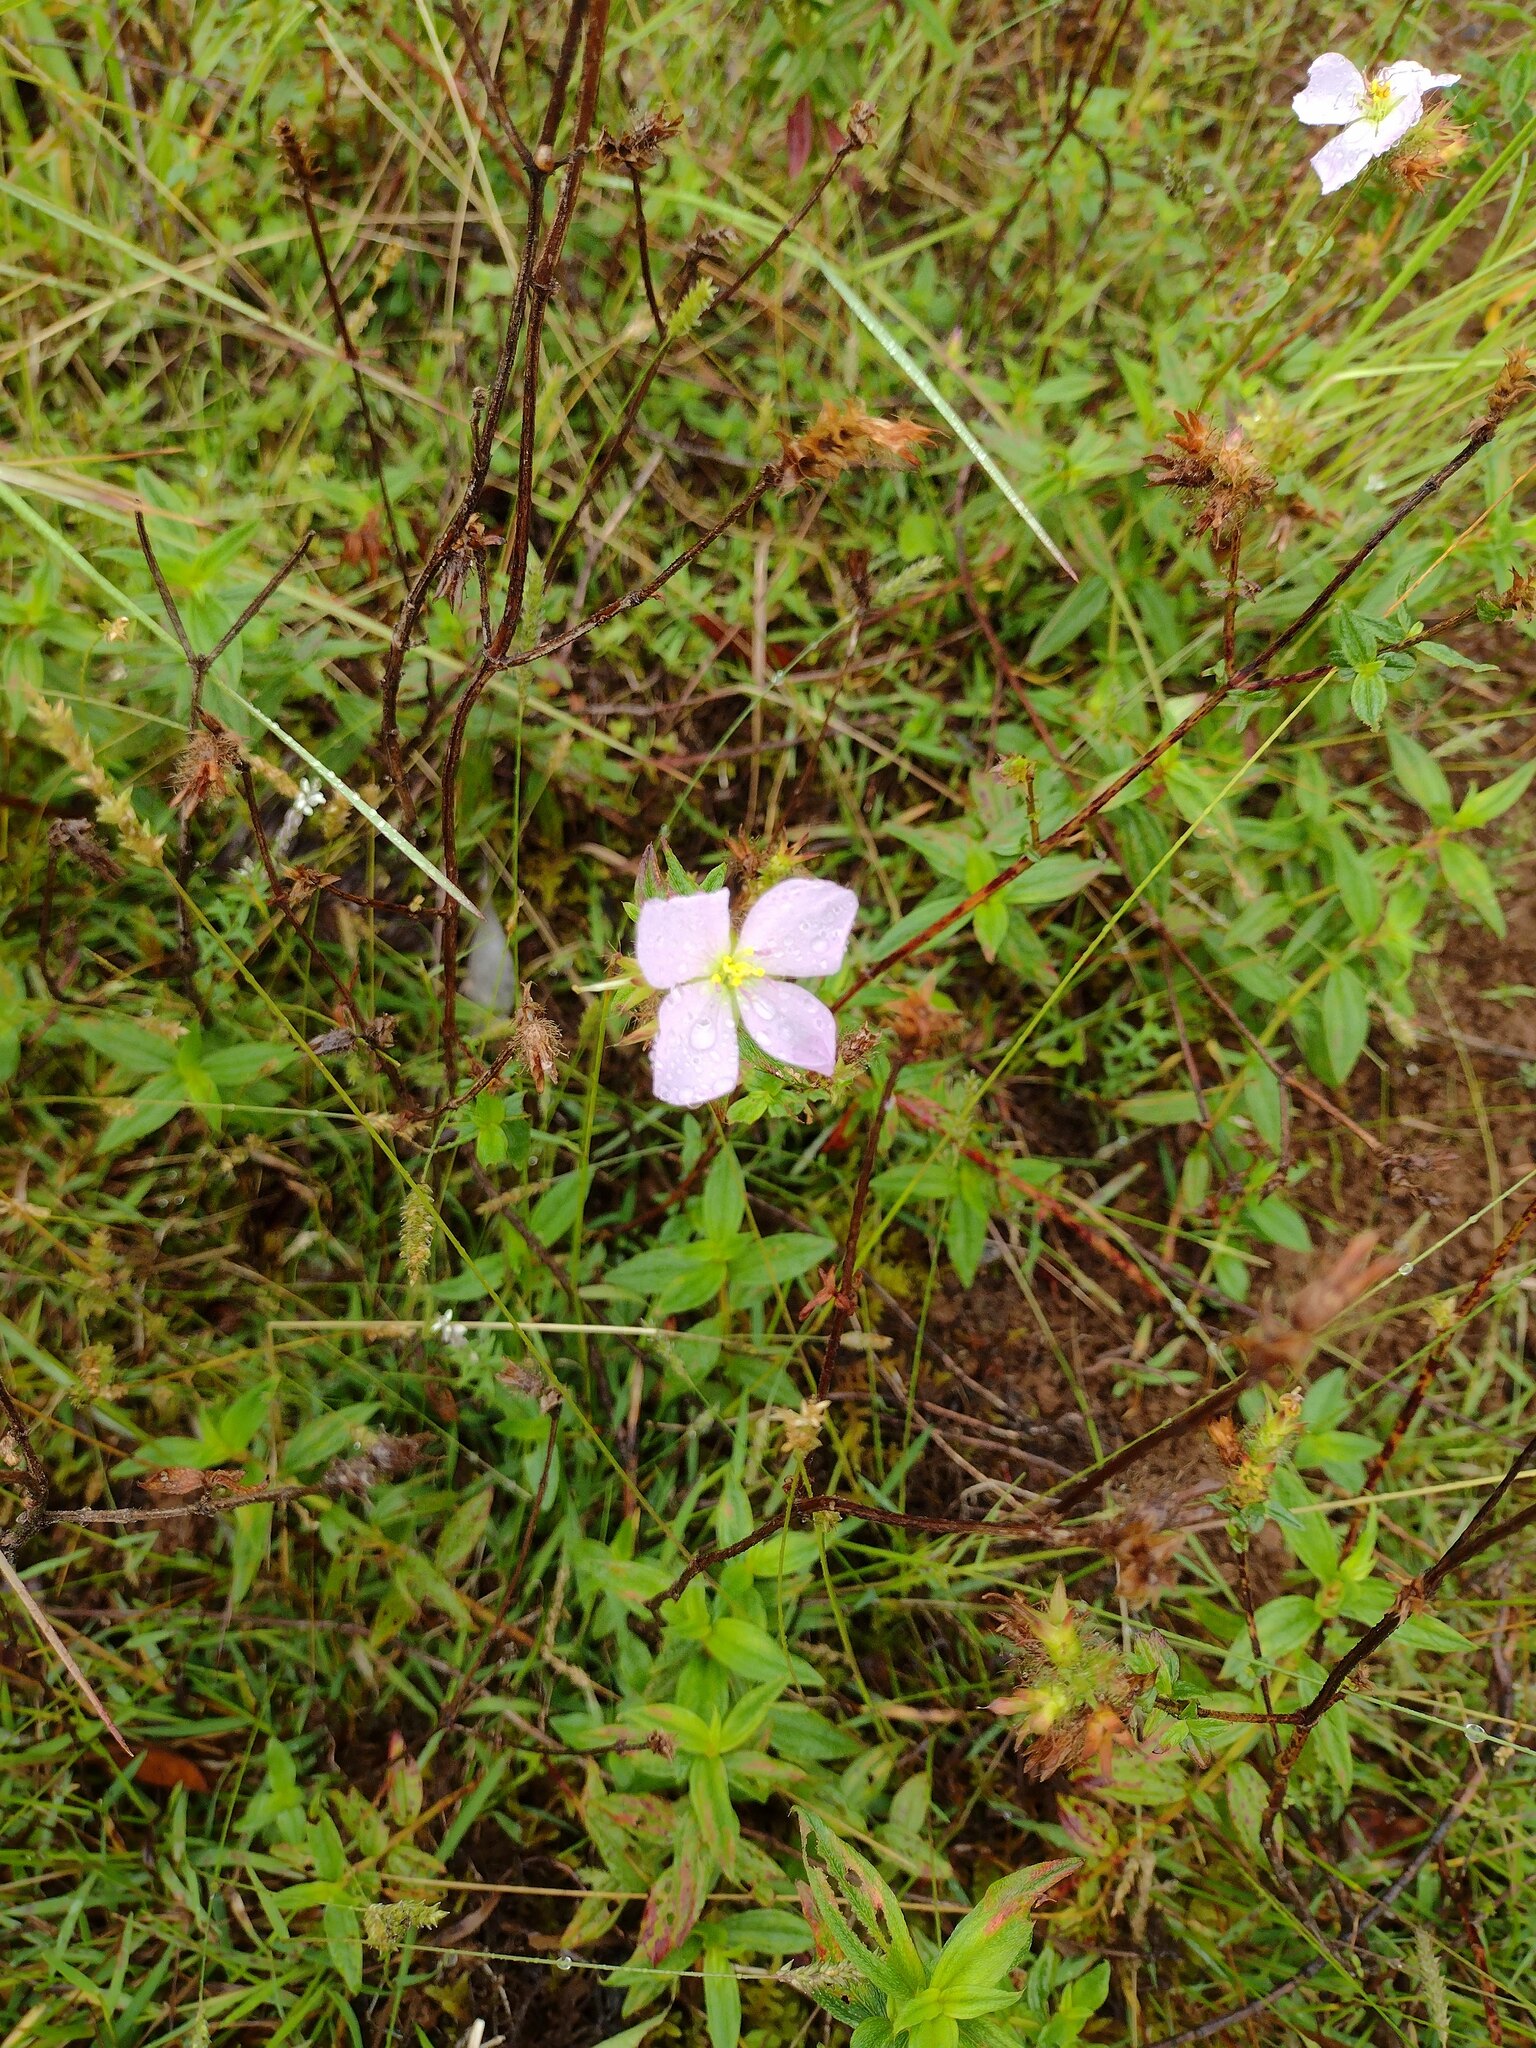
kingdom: Plantae
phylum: Tracheophyta
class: Magnoliopsida
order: Myrtales
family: Melastomataceae
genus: Pterolepis
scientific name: Pterolepis glomerata
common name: False meadowbeauty
